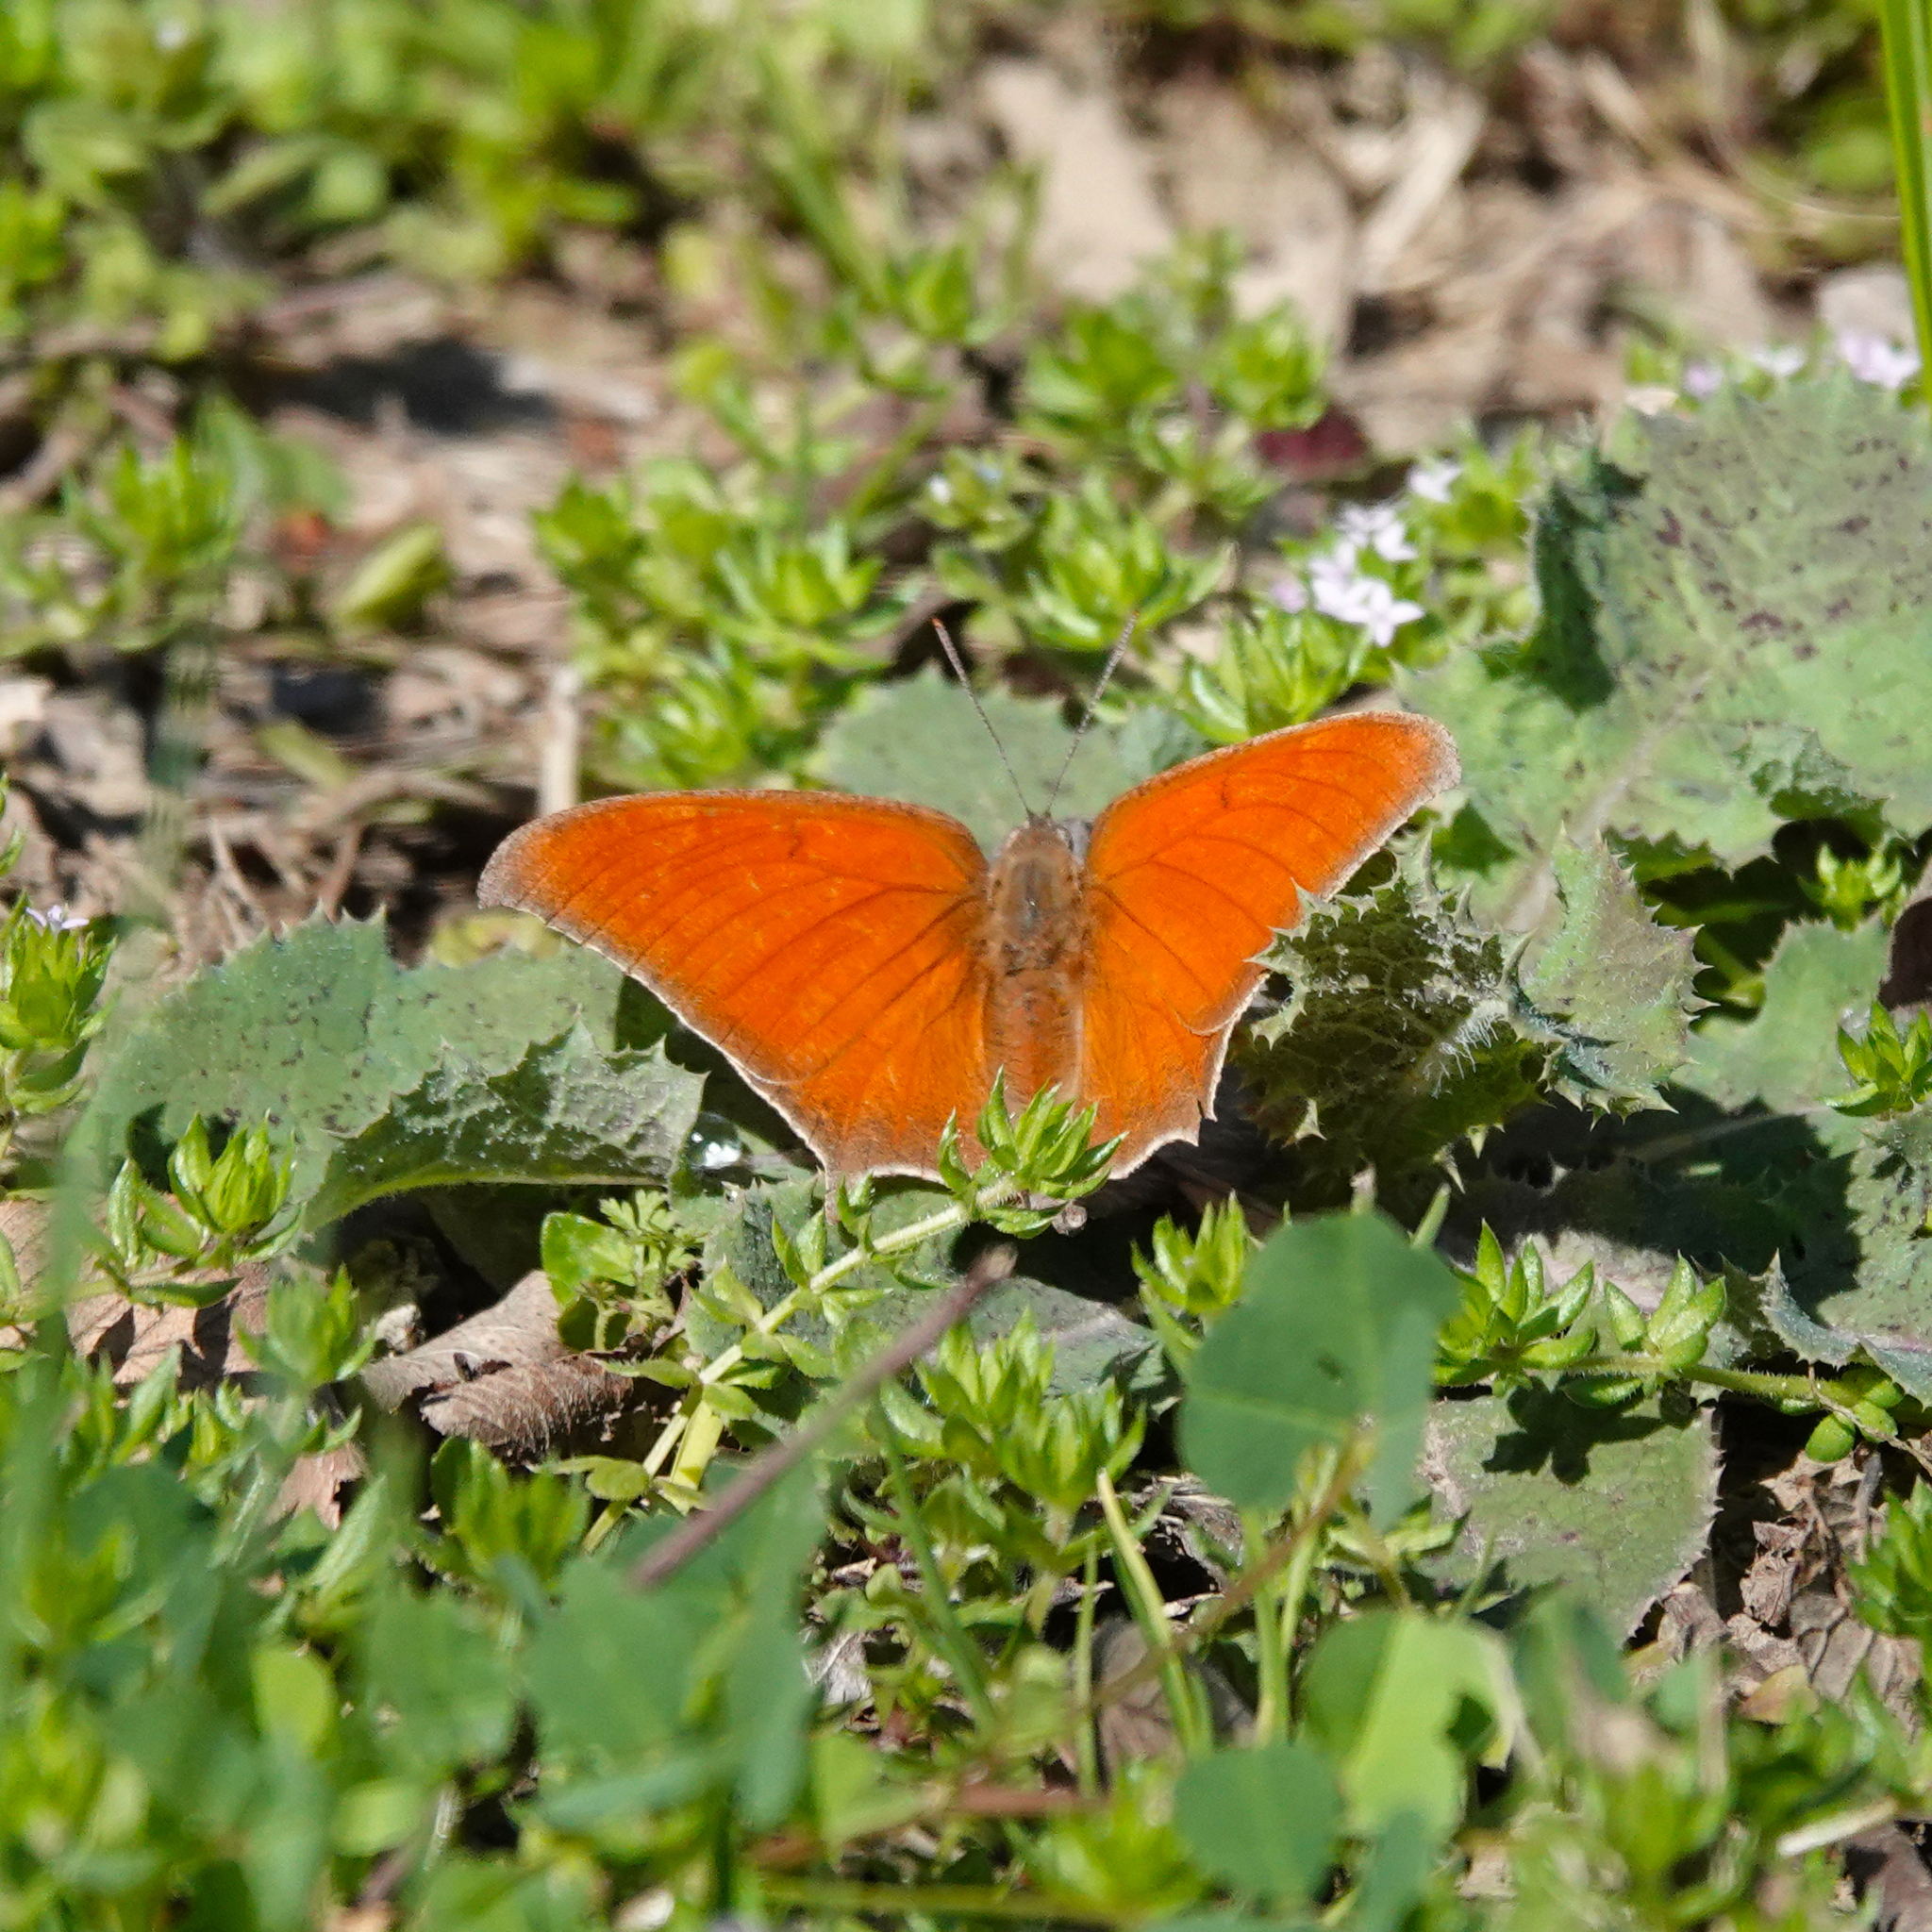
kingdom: Animalia
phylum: Arthropoda
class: Insecta
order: Lepidoptera
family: Nymphalidae
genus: Anaea
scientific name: Anaea andria
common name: Goatweed leafwing
